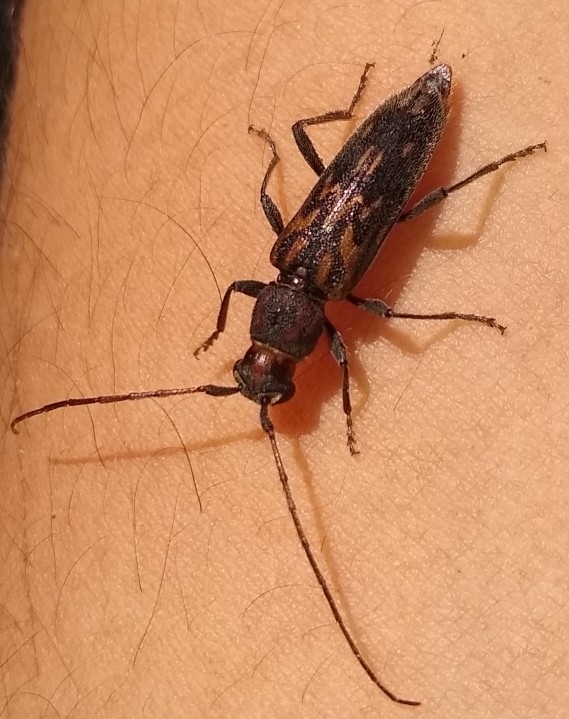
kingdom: Animalia
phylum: Arthropoda
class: Insecta
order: Coleoptera
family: Cerambycidae
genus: Achryson
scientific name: Achryson undulatum
